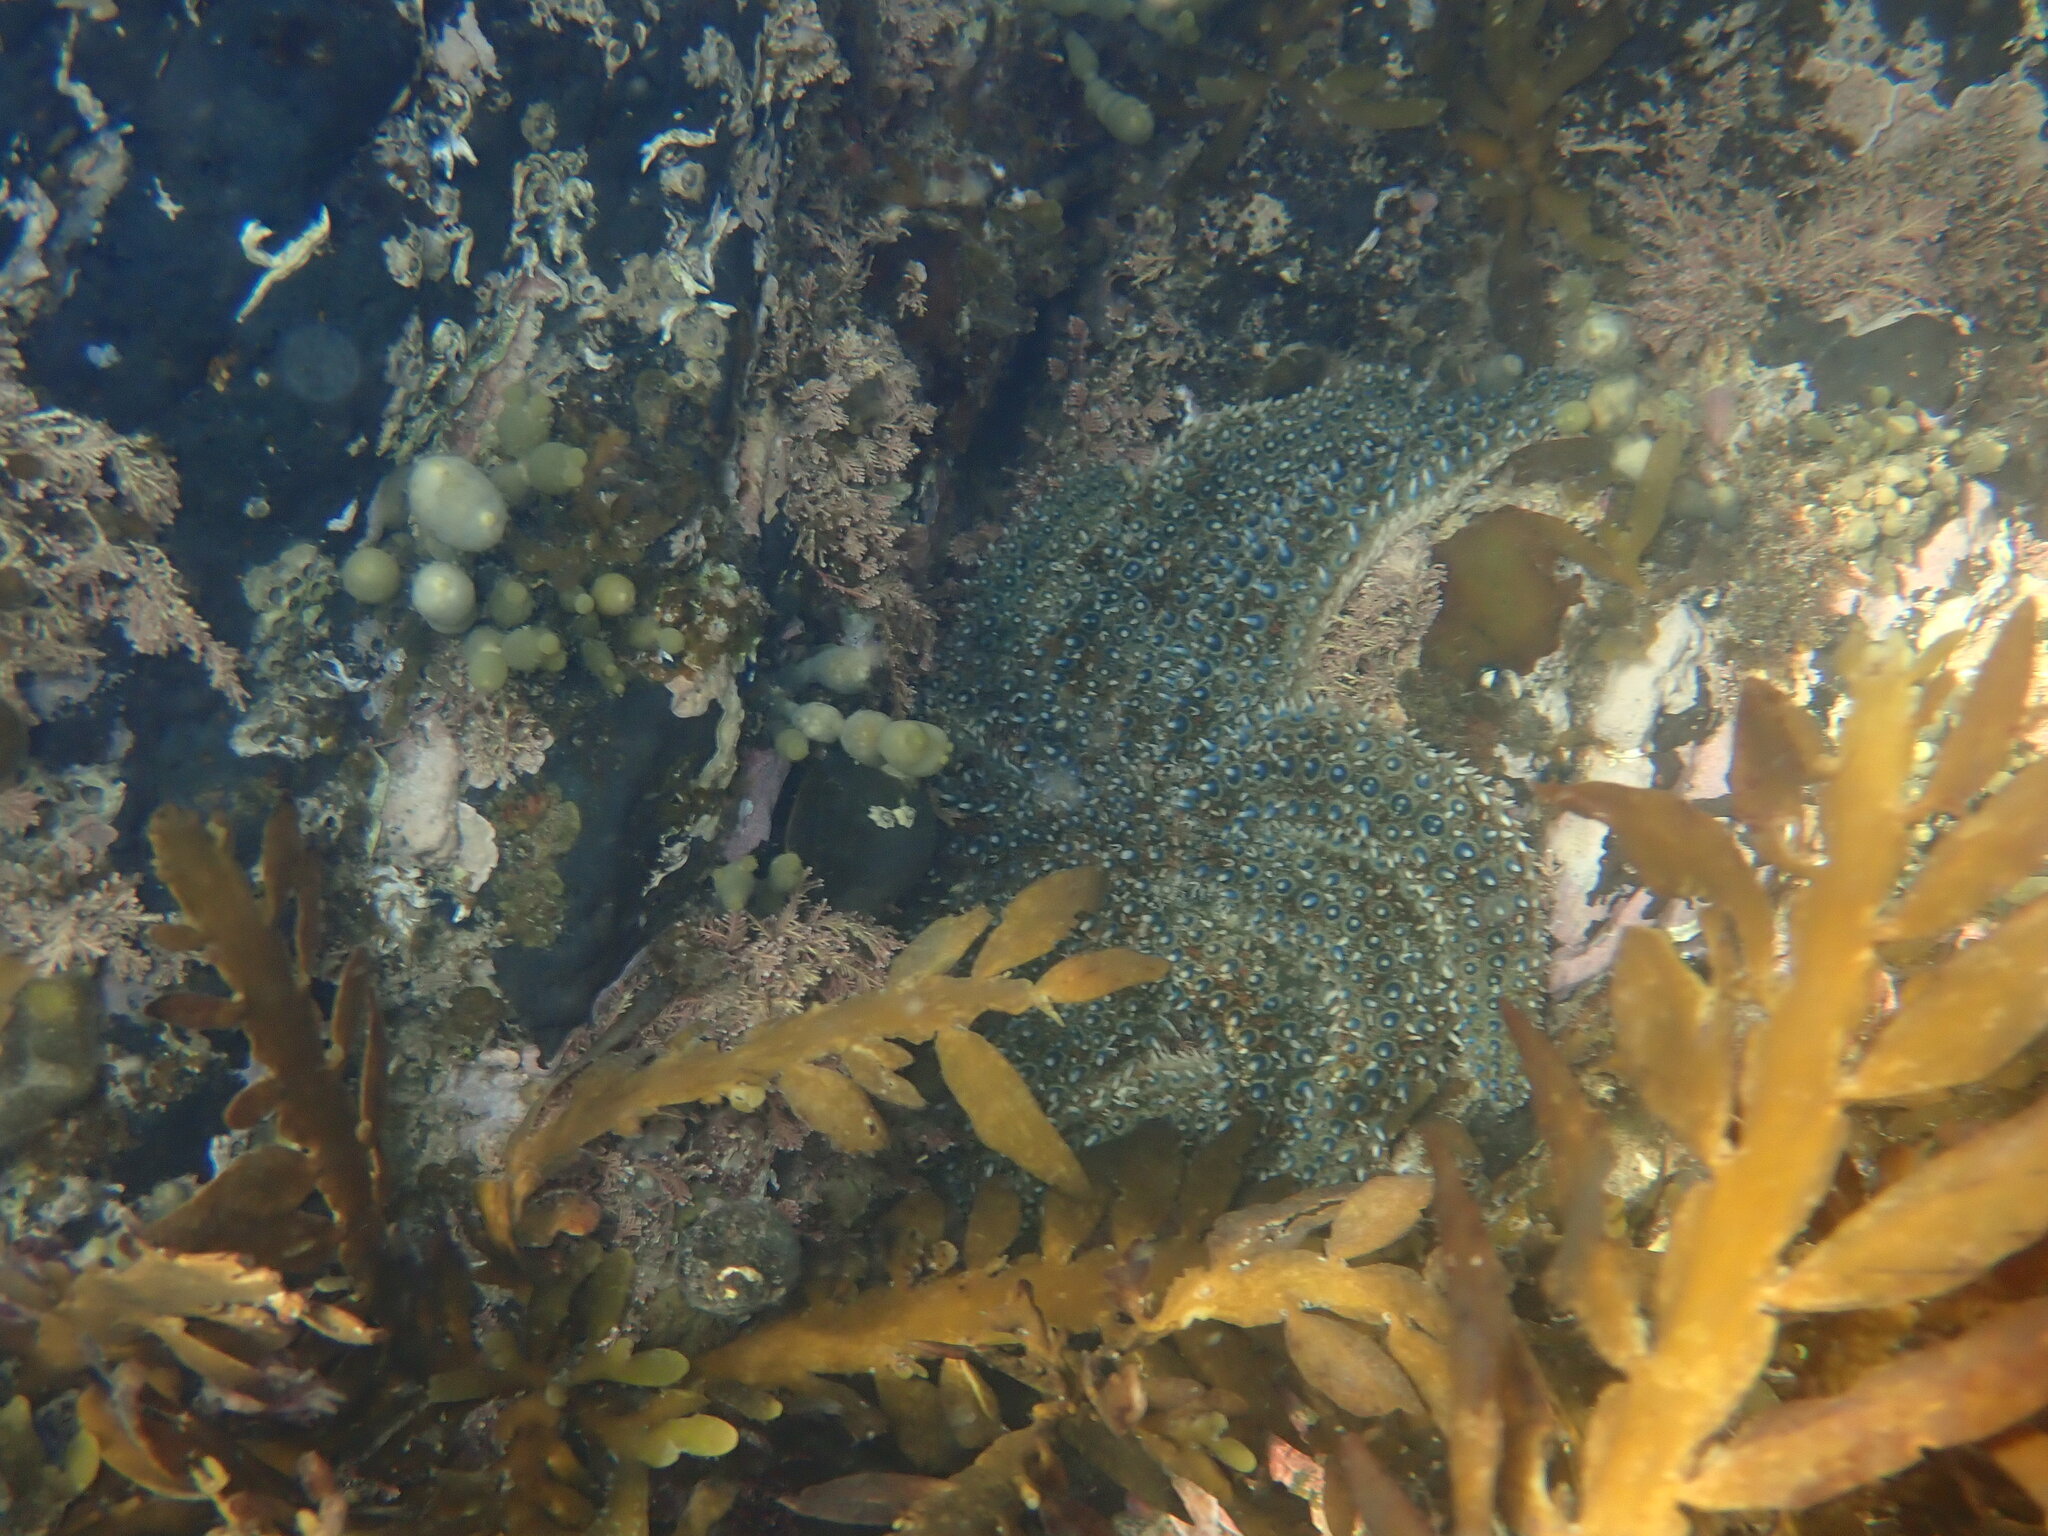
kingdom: Animalia
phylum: Echinodermata
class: Asteroidea
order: Forcipulatida
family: Asteriidae
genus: Coscinasterias
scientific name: Coscinasterias muricata
